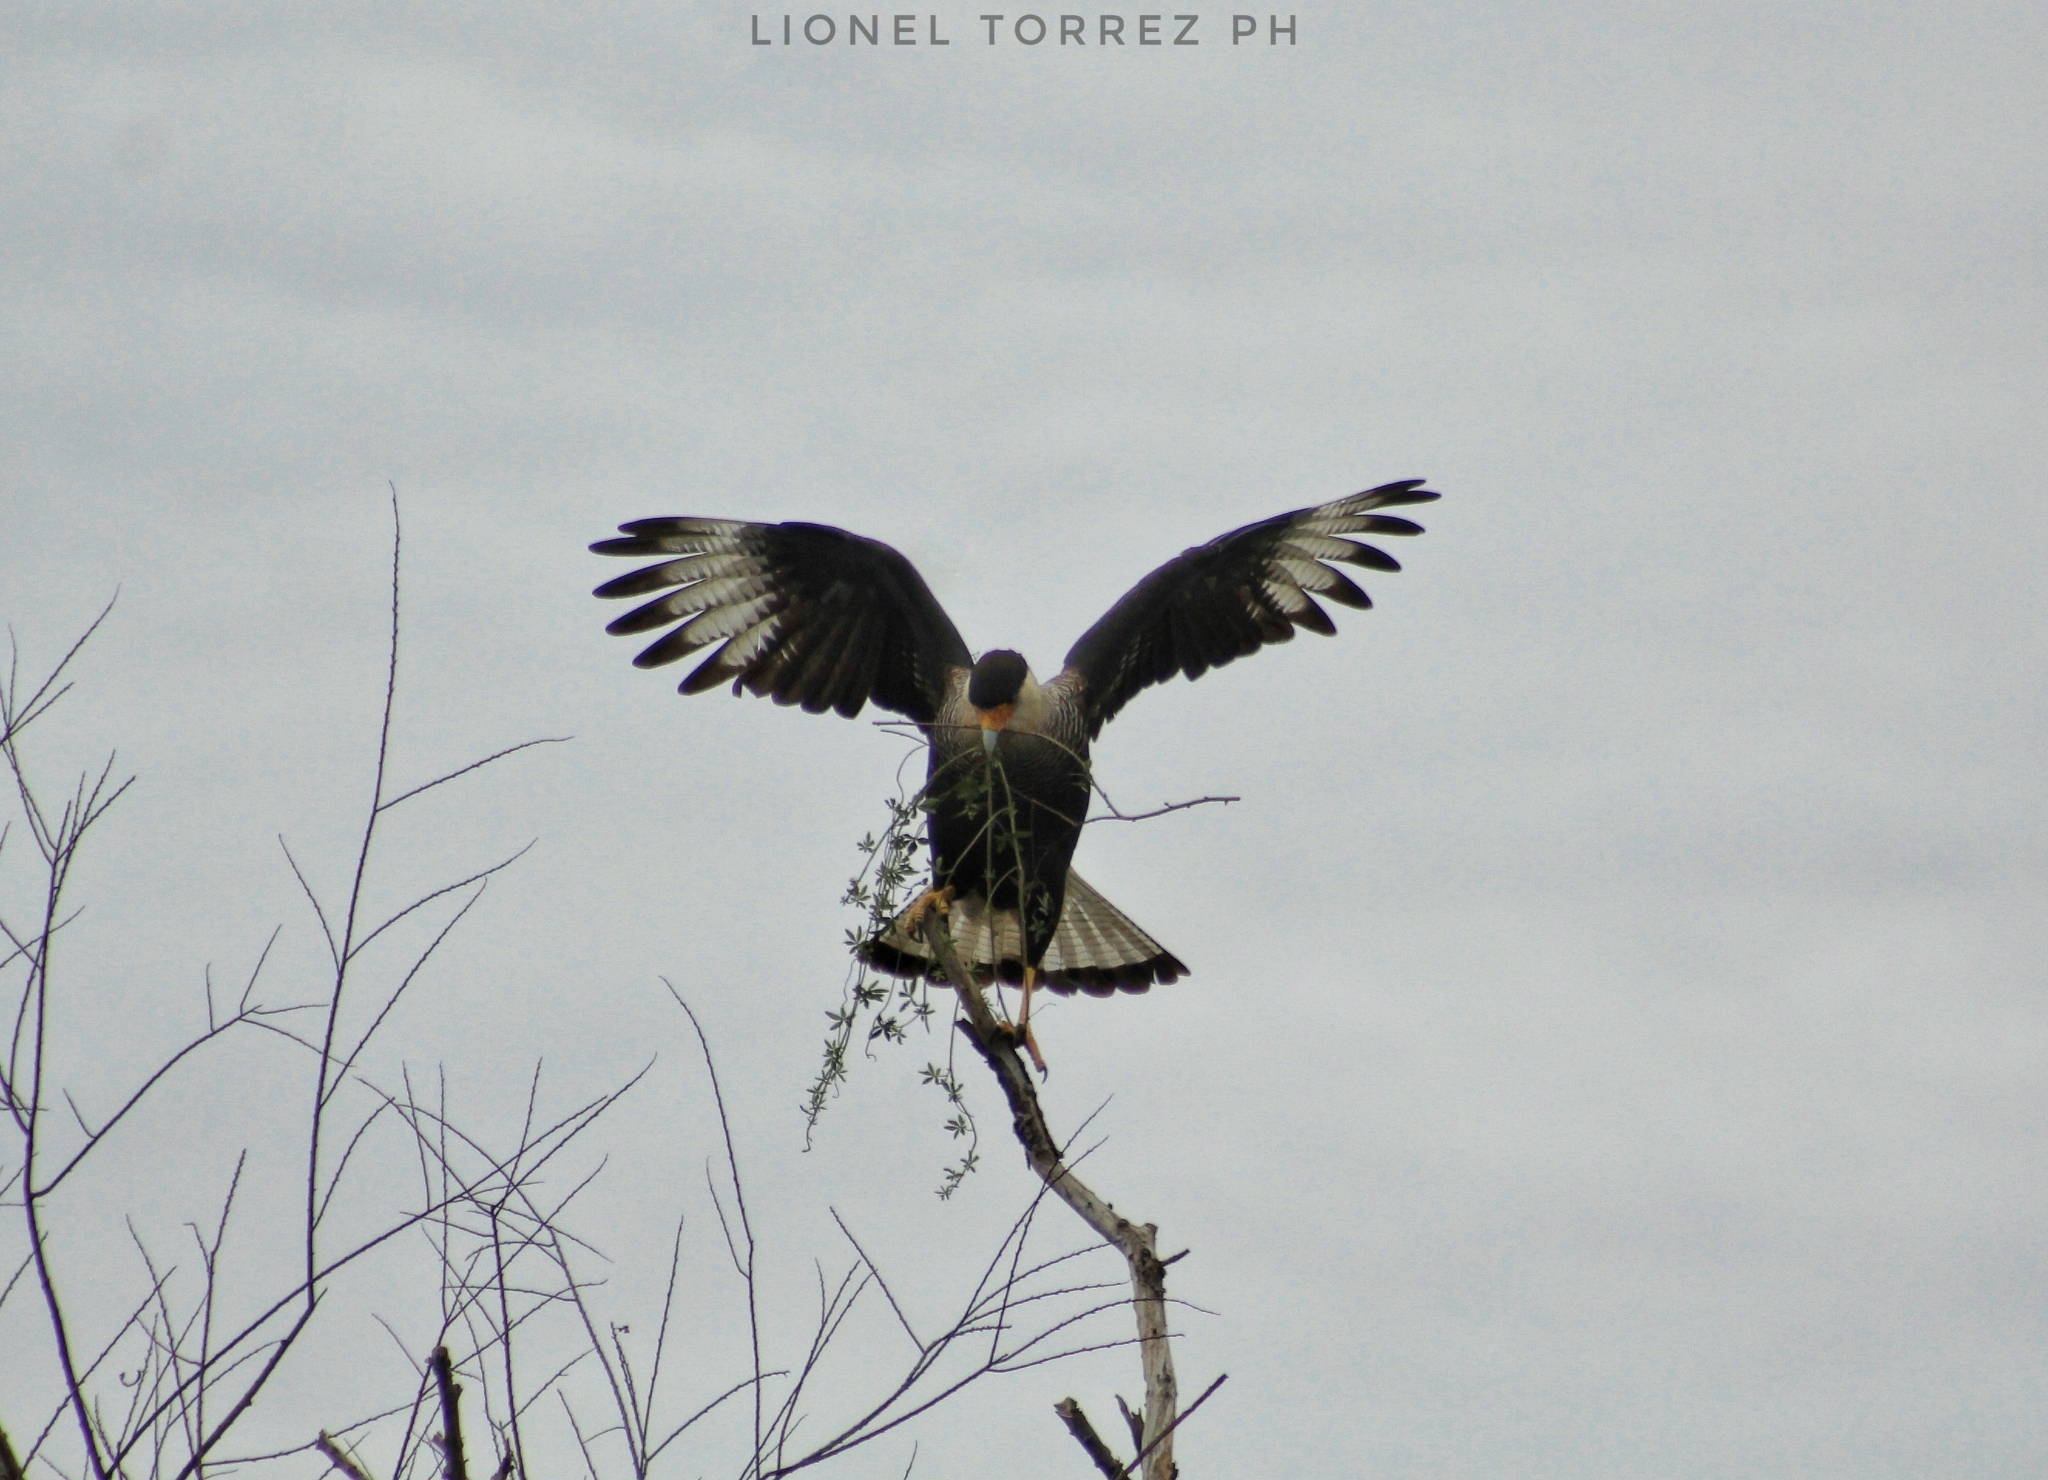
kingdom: Animalia
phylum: Chordata
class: Aves
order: Falconiformes
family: Falconidae
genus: Caracara
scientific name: Caracara plancus
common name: Southern caracara
